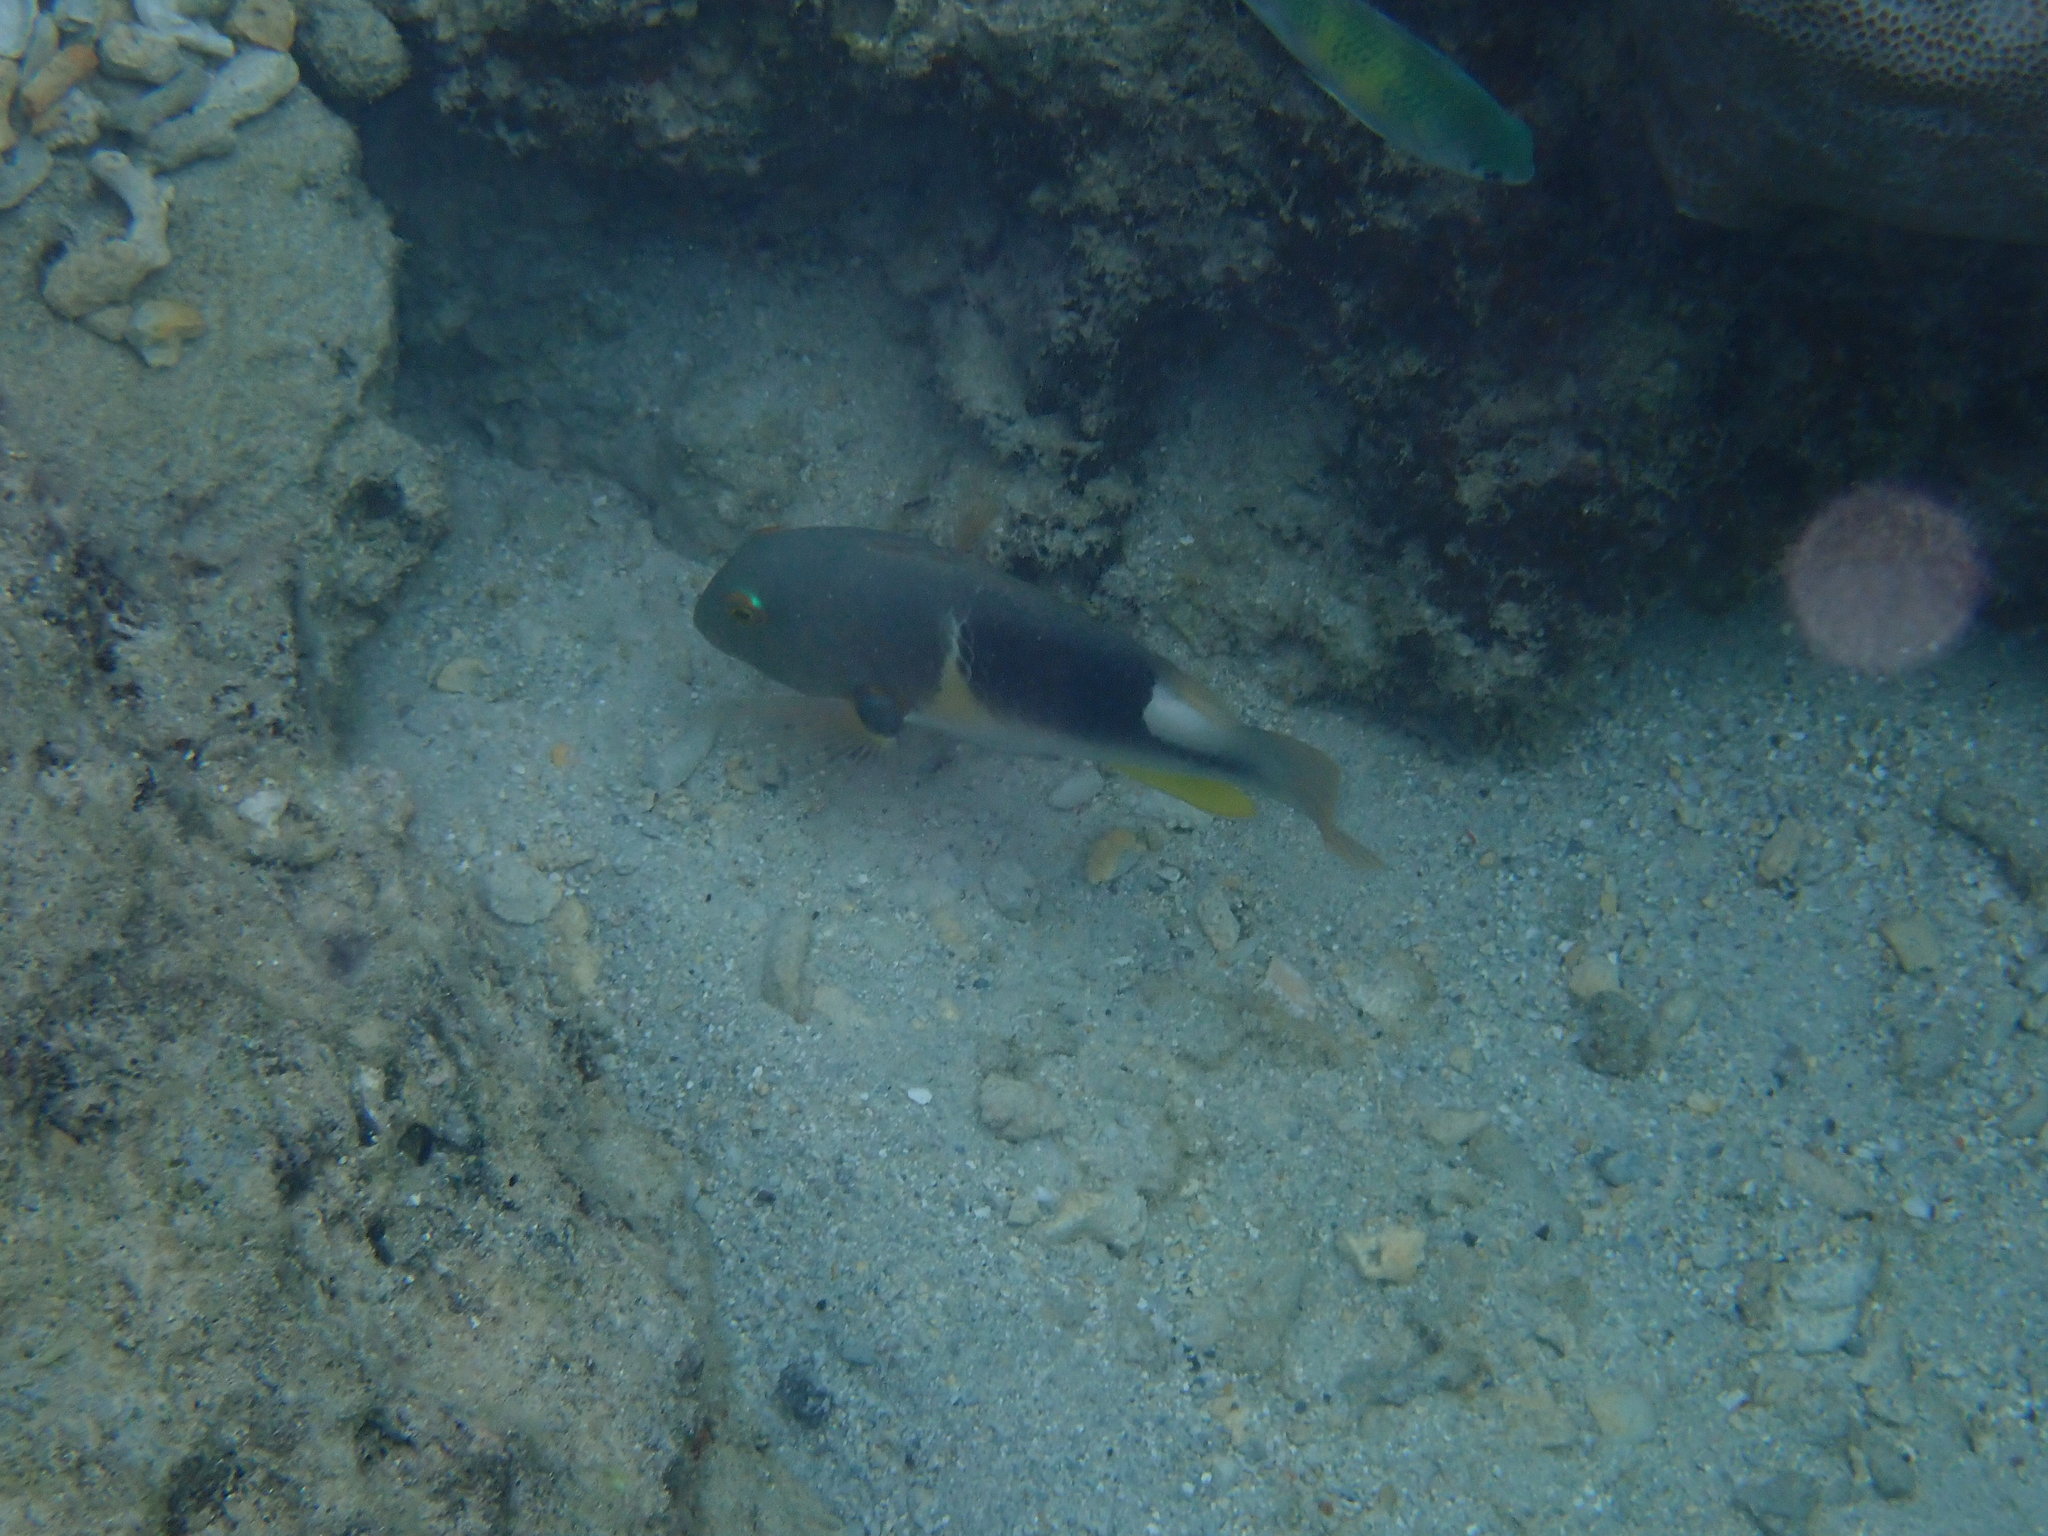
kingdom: Animalia
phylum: Chordata
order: Perciformes
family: Labridae
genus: Choerodon
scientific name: Choerodon anchorago
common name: Anchor tuskfish
